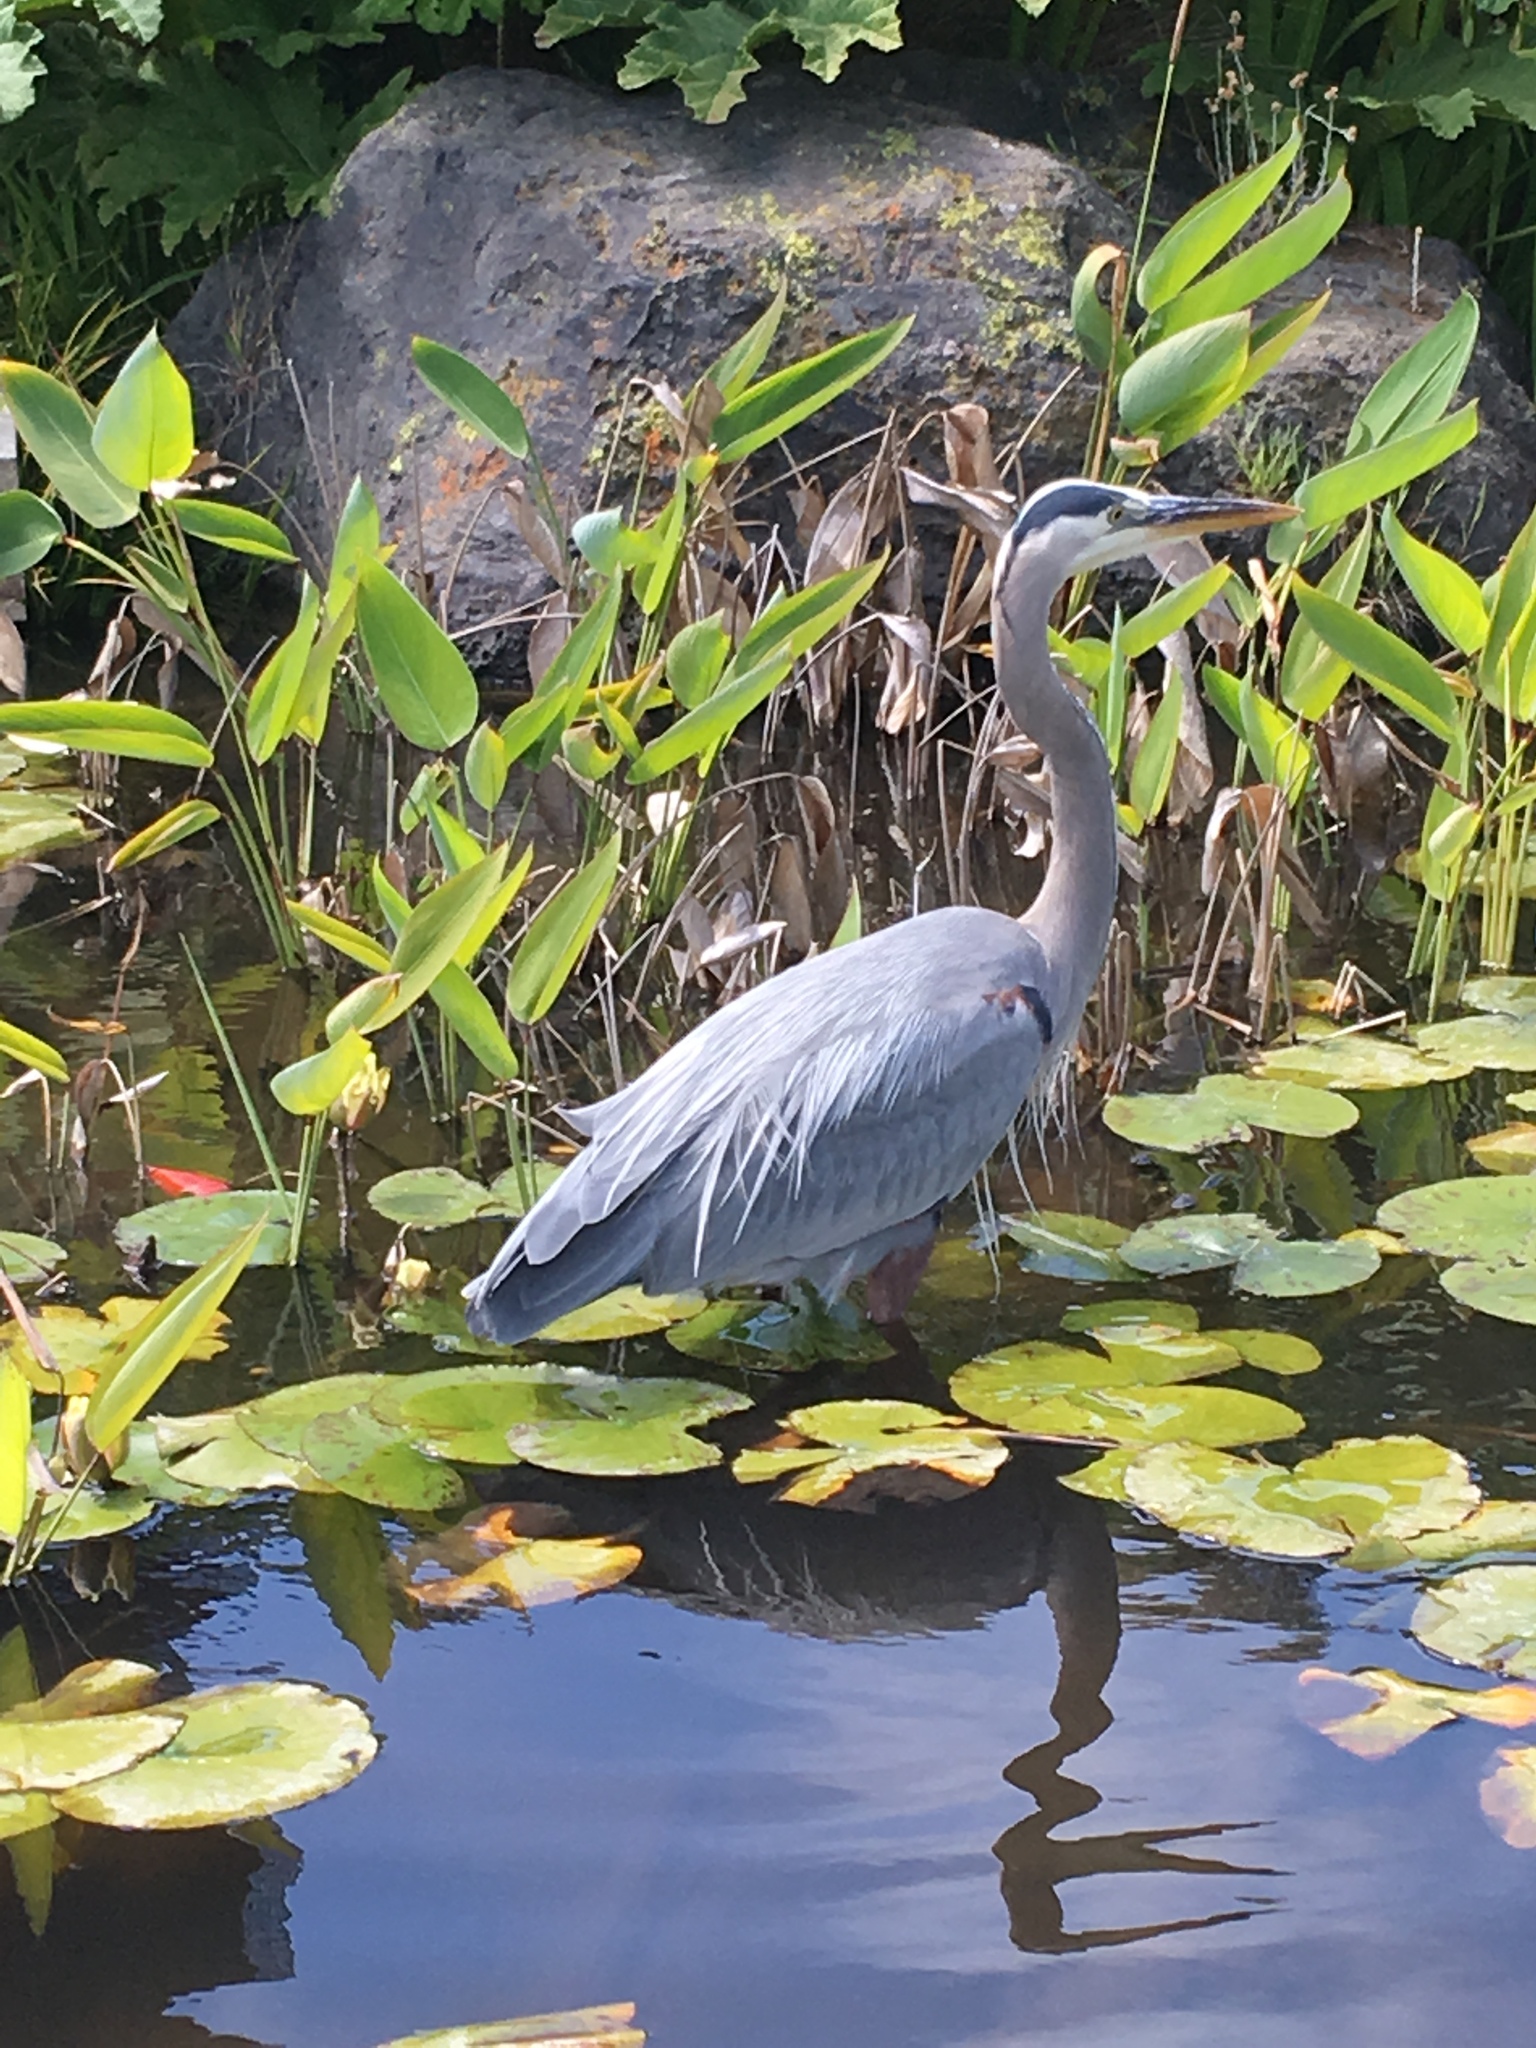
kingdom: Animalia
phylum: Chordata
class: Aves
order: Pelecaniformes
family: Ardeidae
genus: Ardea
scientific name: Ardea herodias
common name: Great blue heron
